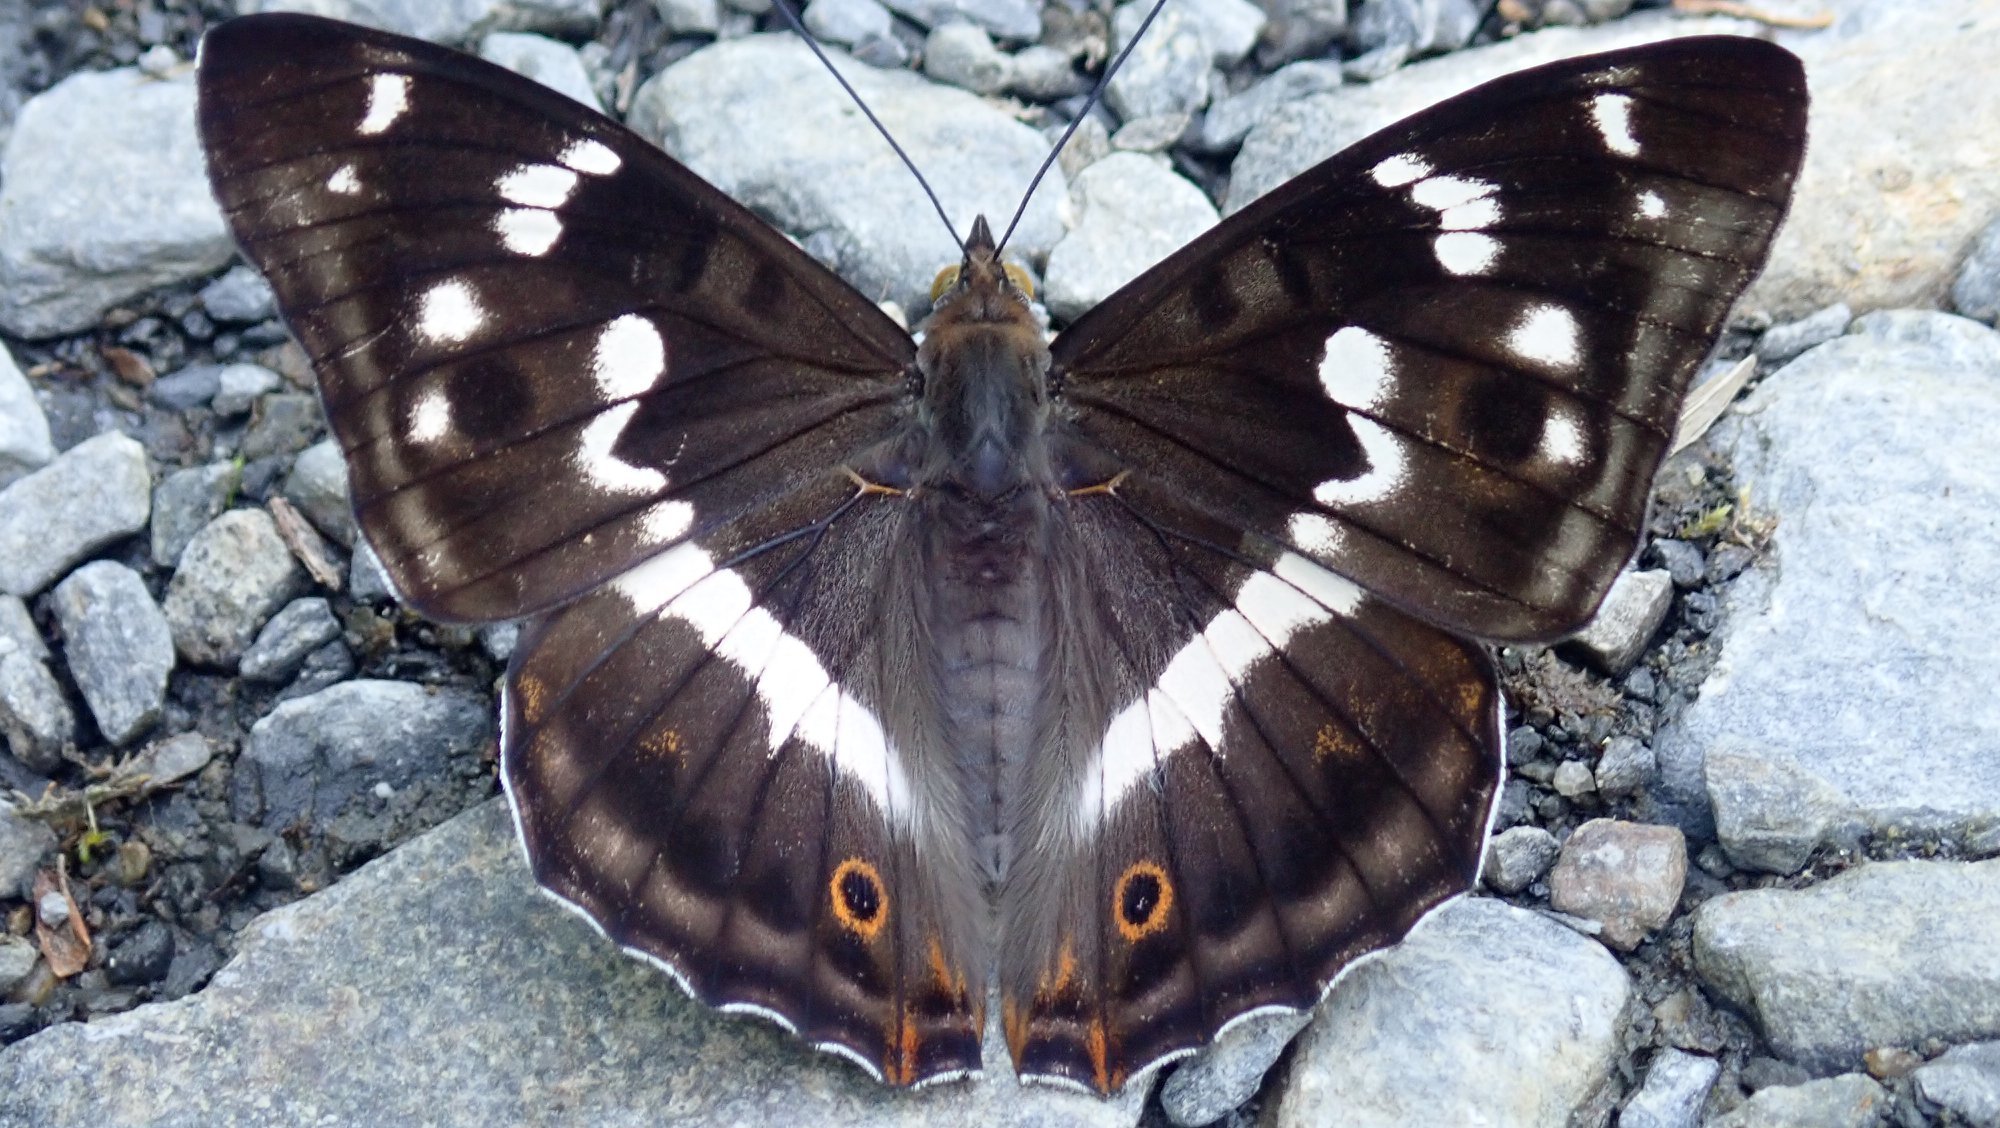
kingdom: Animalia
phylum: Arthropoda
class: Insecta
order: Lepidoptera
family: Nymphalidae
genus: Apatura
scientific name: Apatura iris
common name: Purple emperor
